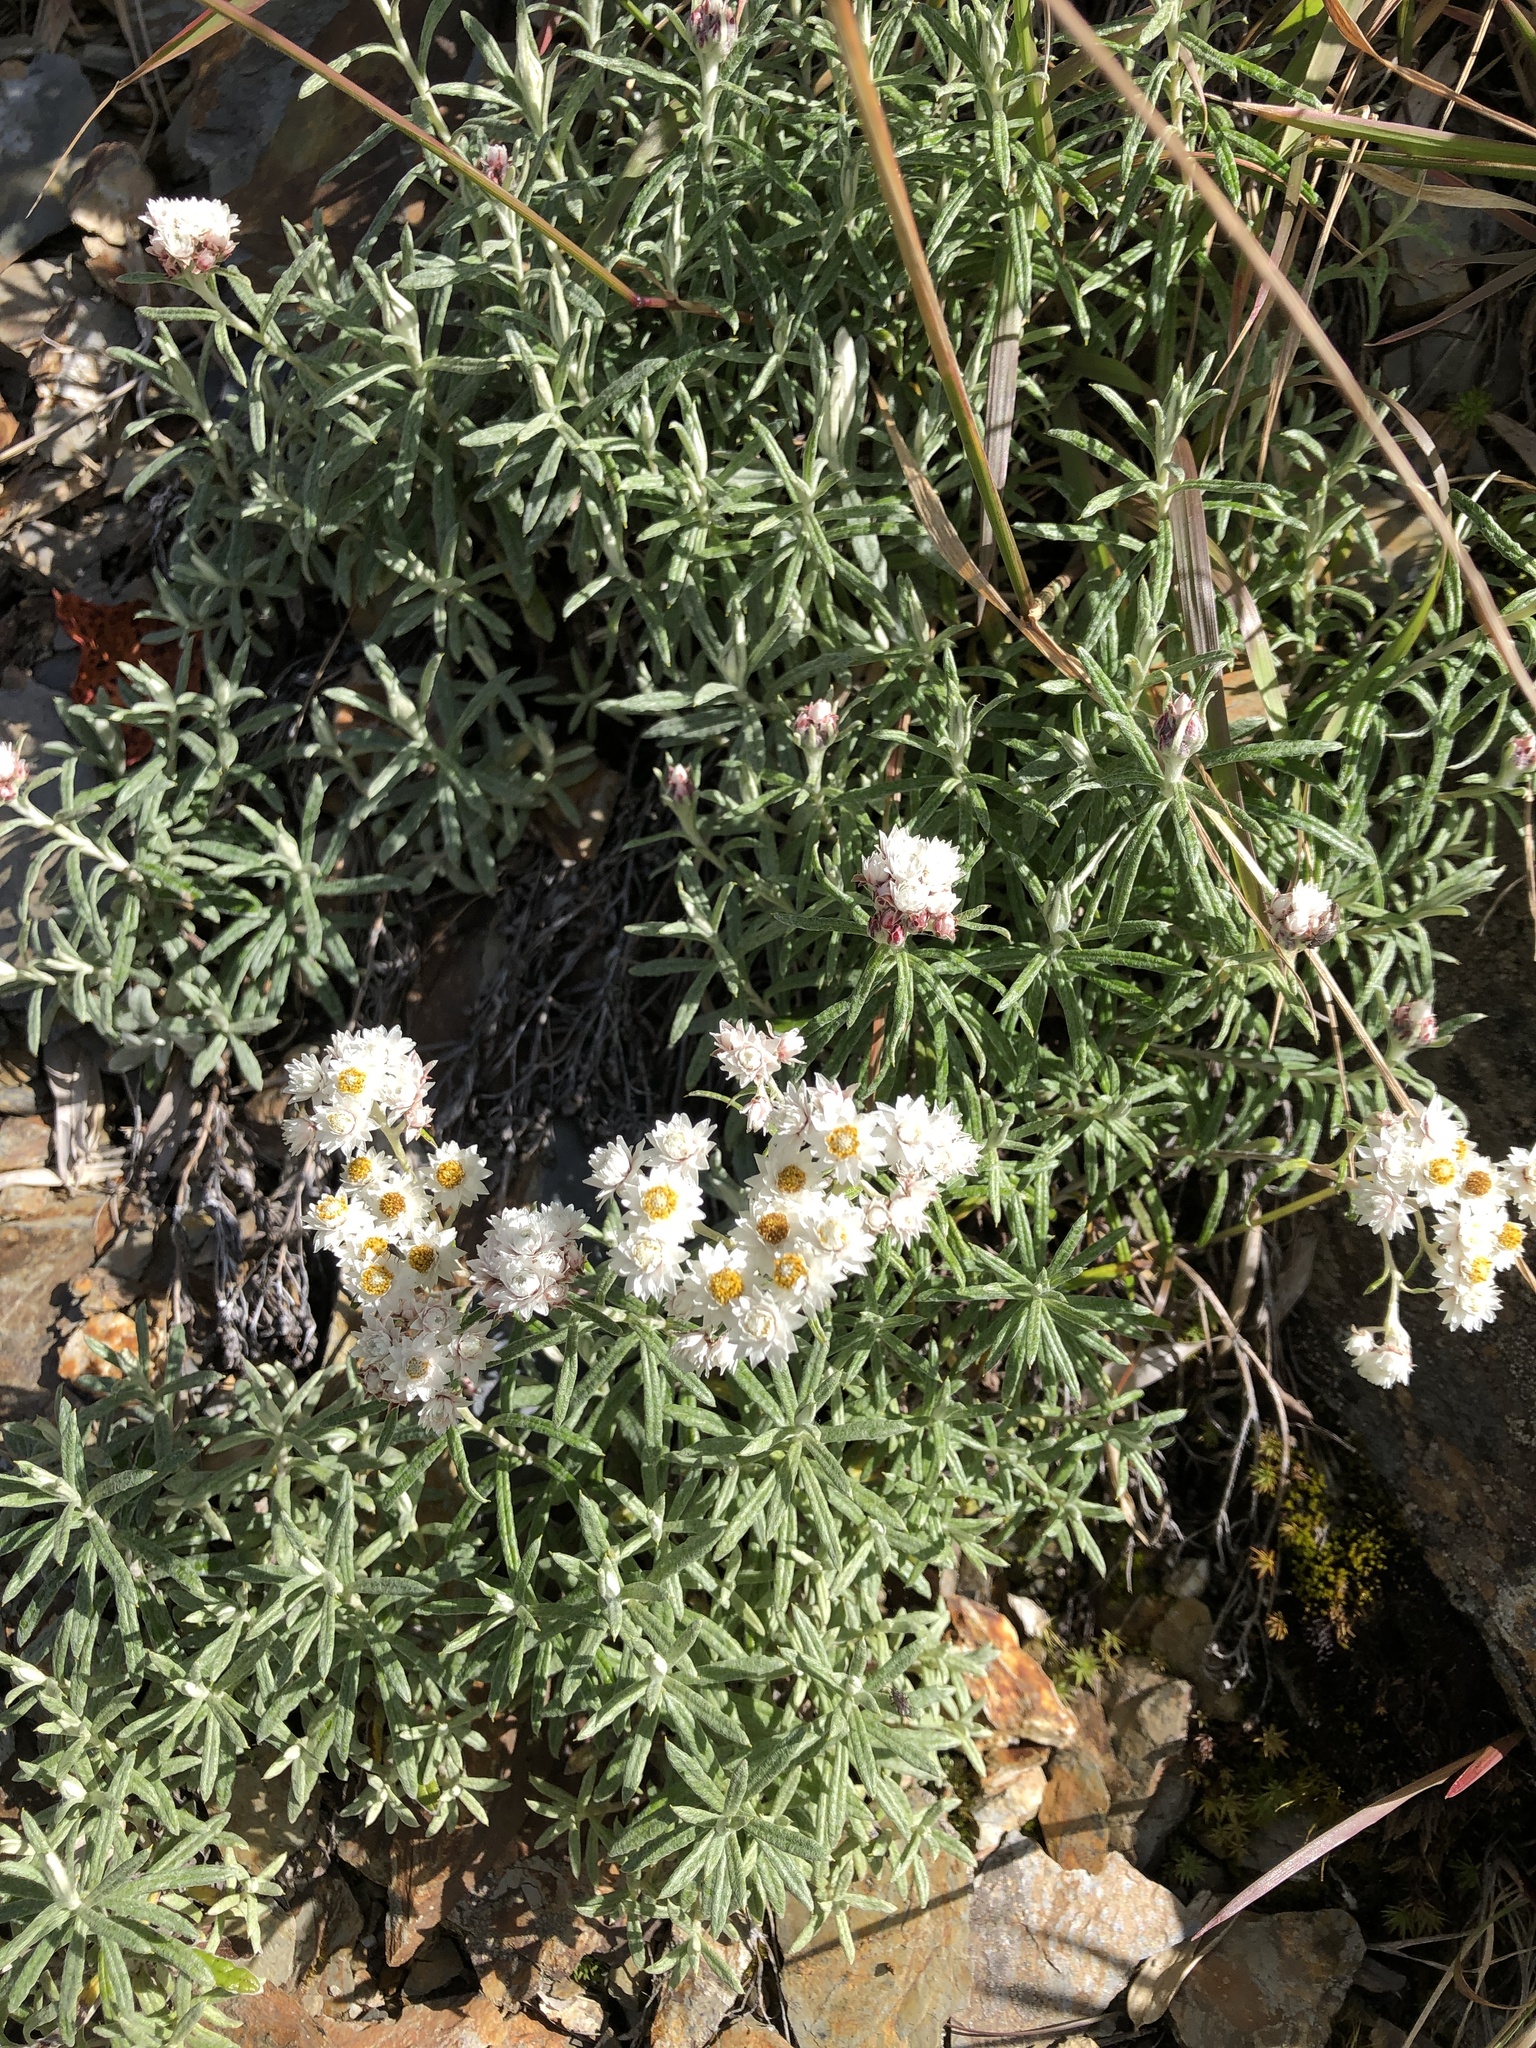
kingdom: Plantae
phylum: Tracheophyta
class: Magnoliopsida
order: Asterales
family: Asteraceae
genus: Anaphalis
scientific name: Anaphalis morrisonicola
